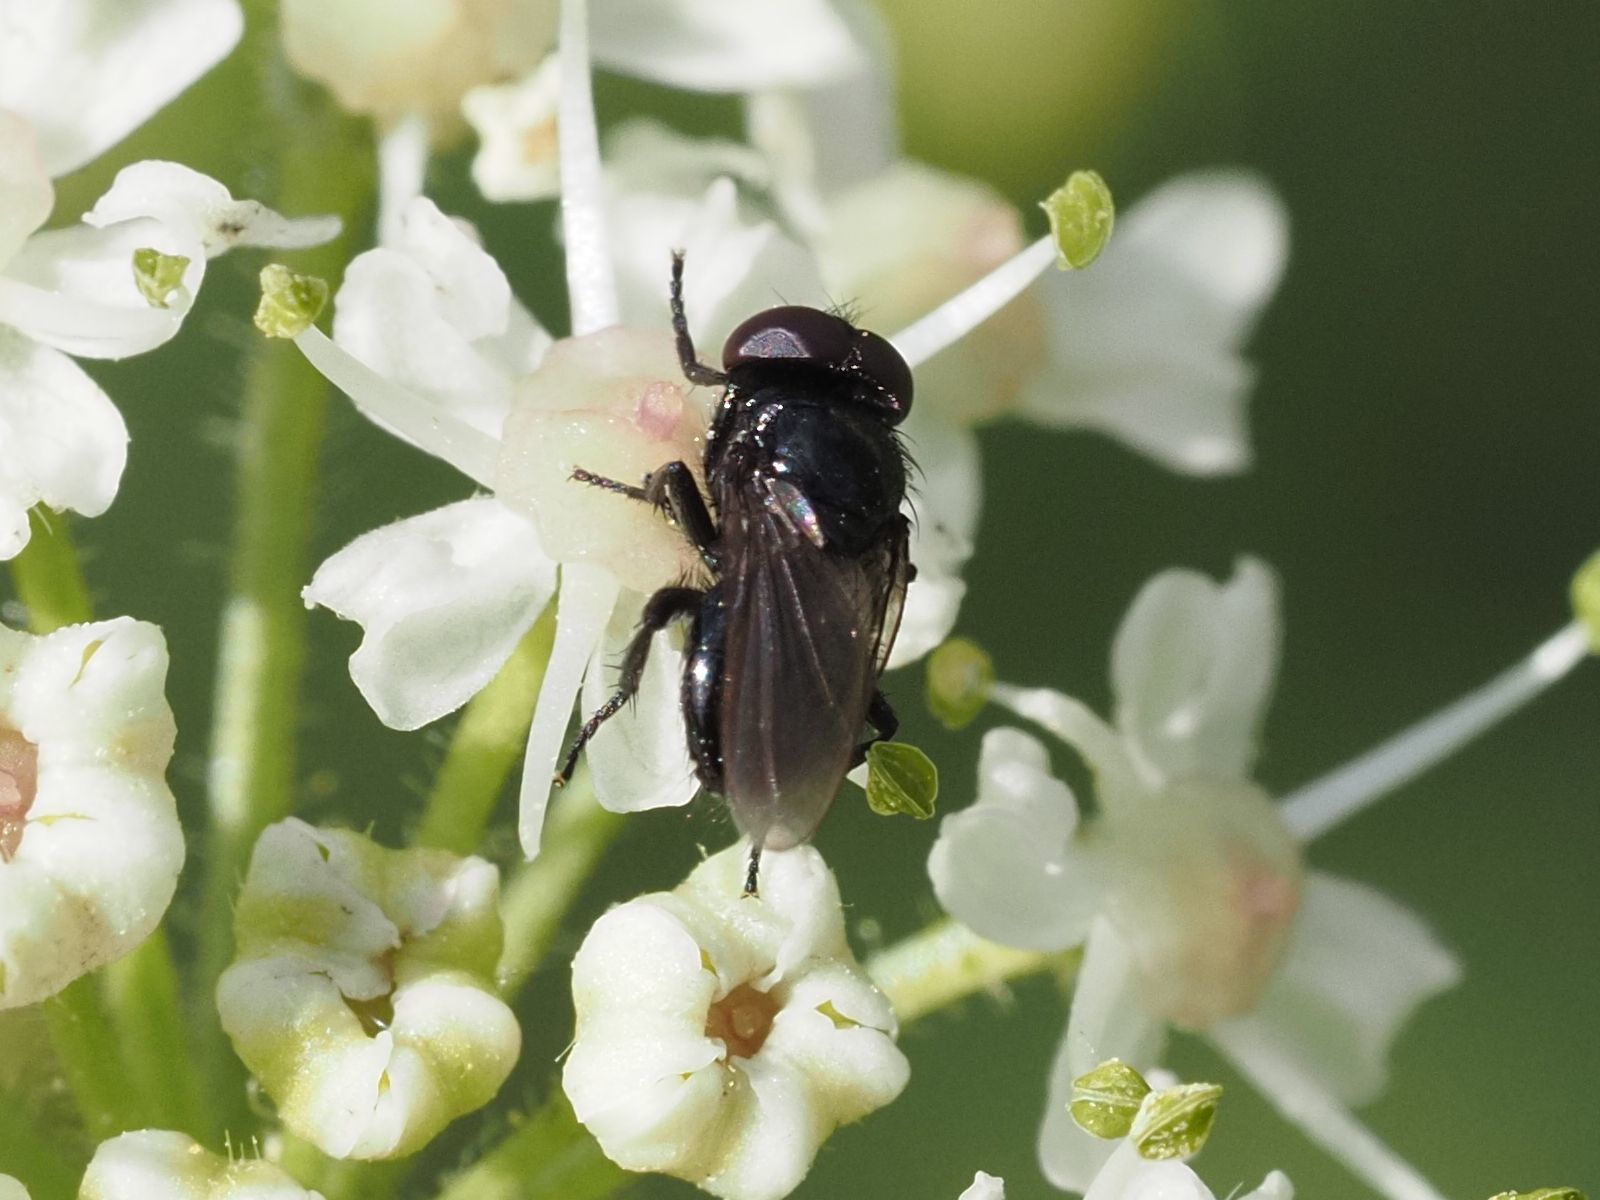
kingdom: Animalia
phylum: Arthropoda
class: Insecta
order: Diptera
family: Tachinidae
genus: Litophasia
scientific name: Litophasia hyalipennis
